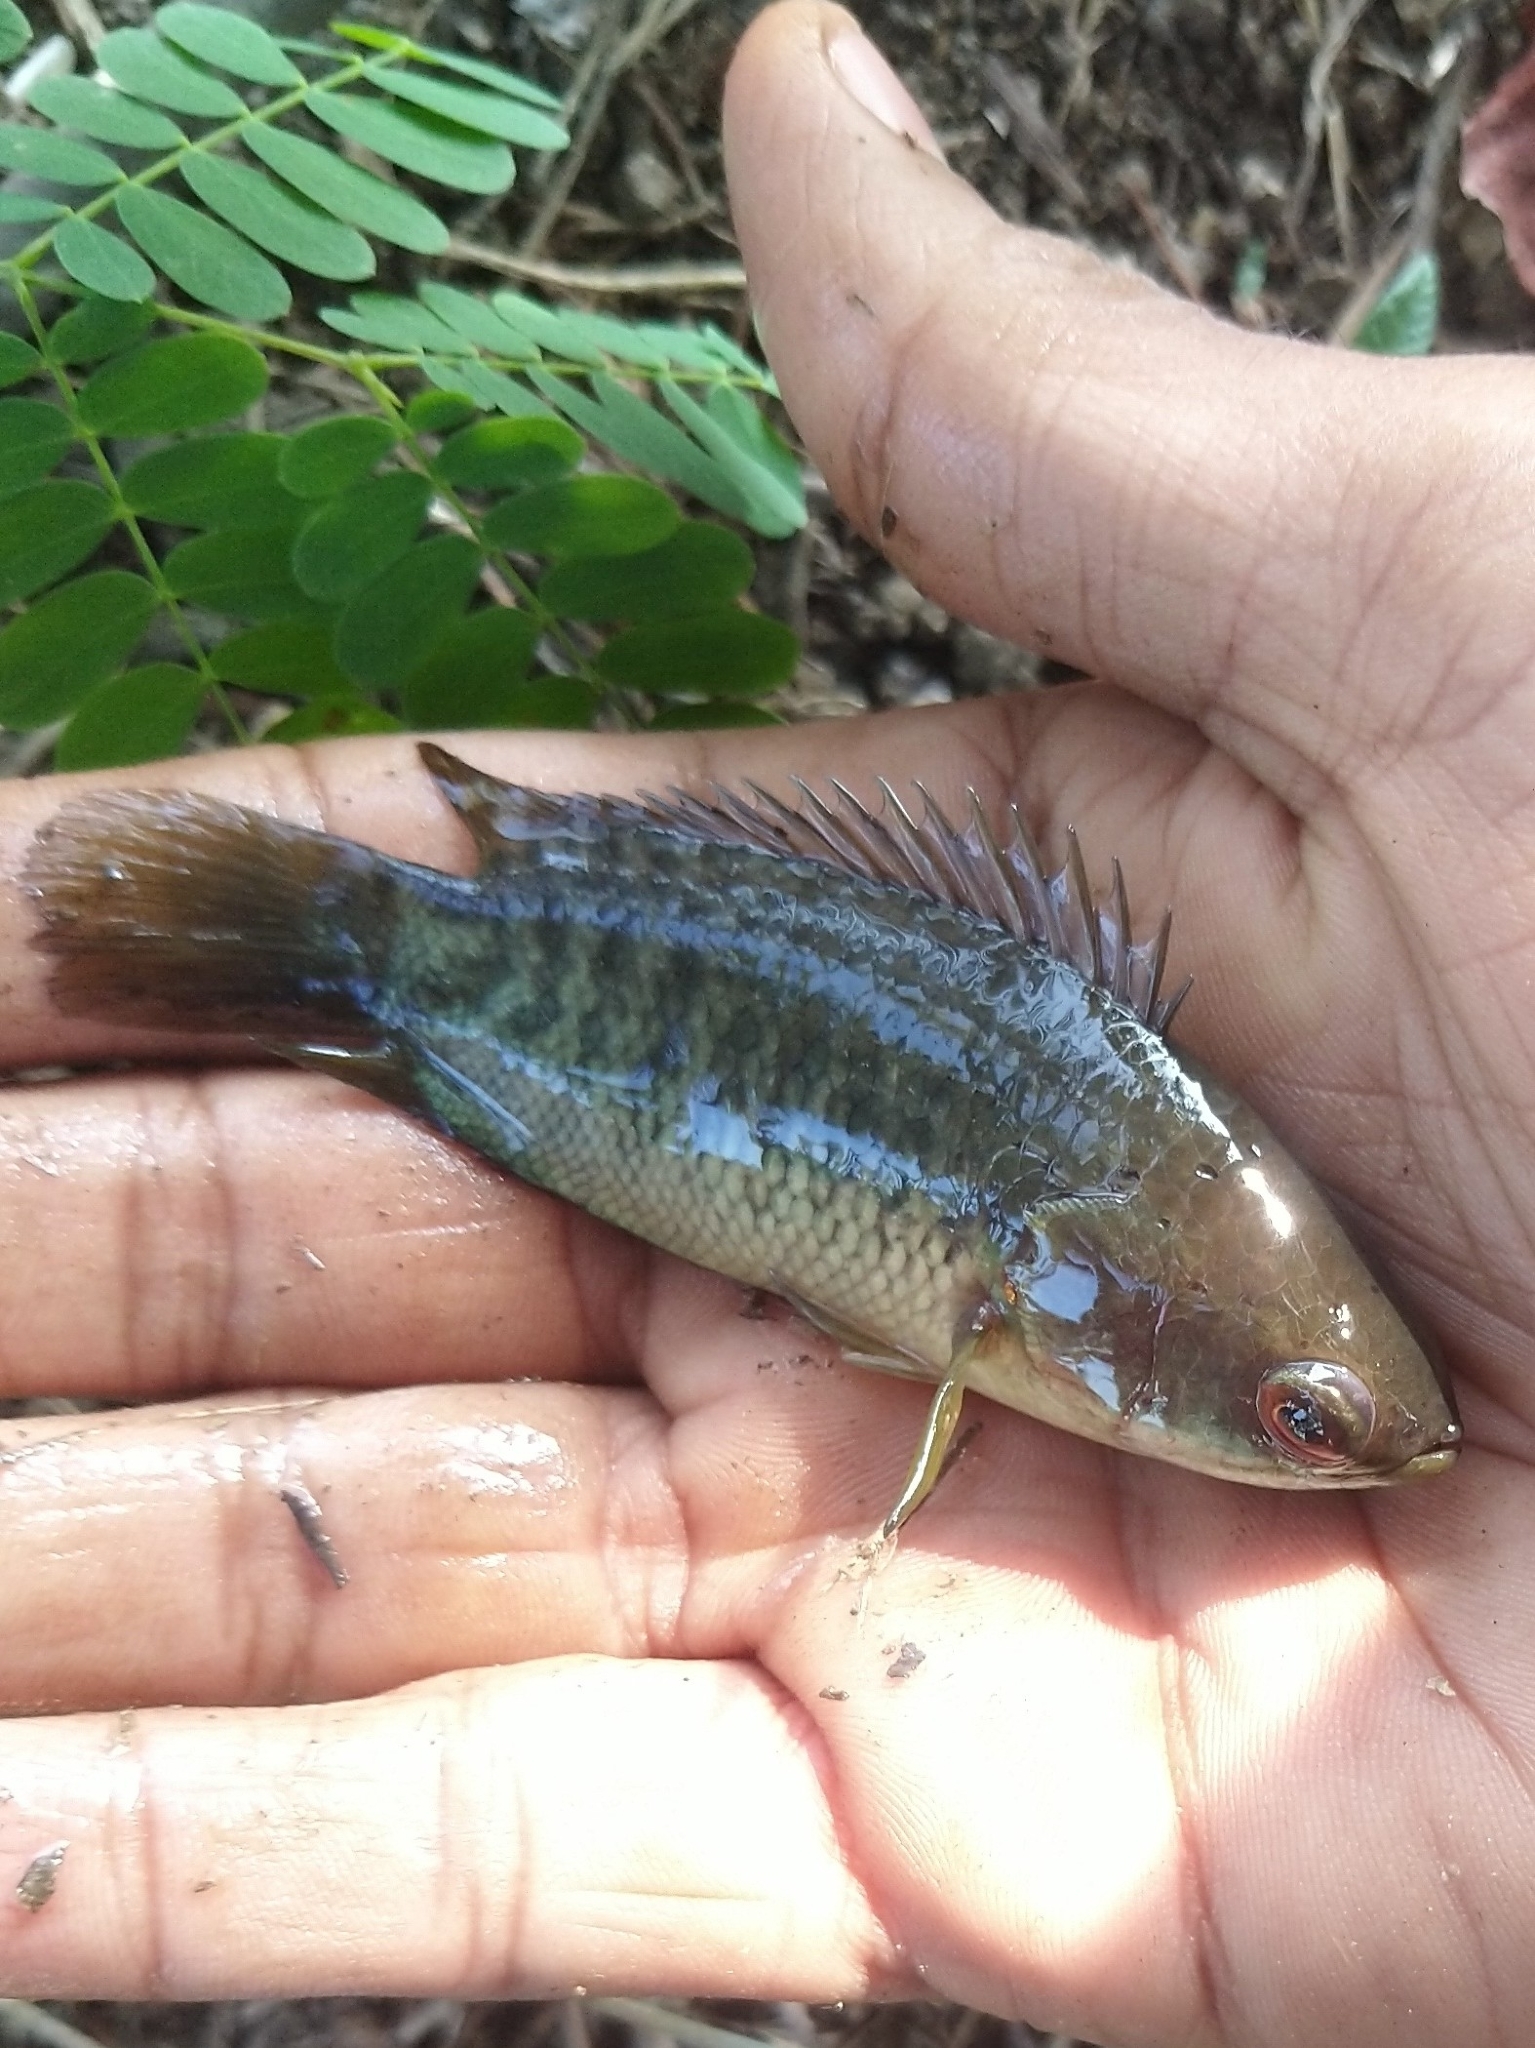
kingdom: Animalia
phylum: Chordata
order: Perciformes
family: Anabantidae
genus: Anabas
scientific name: Anabas testudineus
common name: Climbing perch
